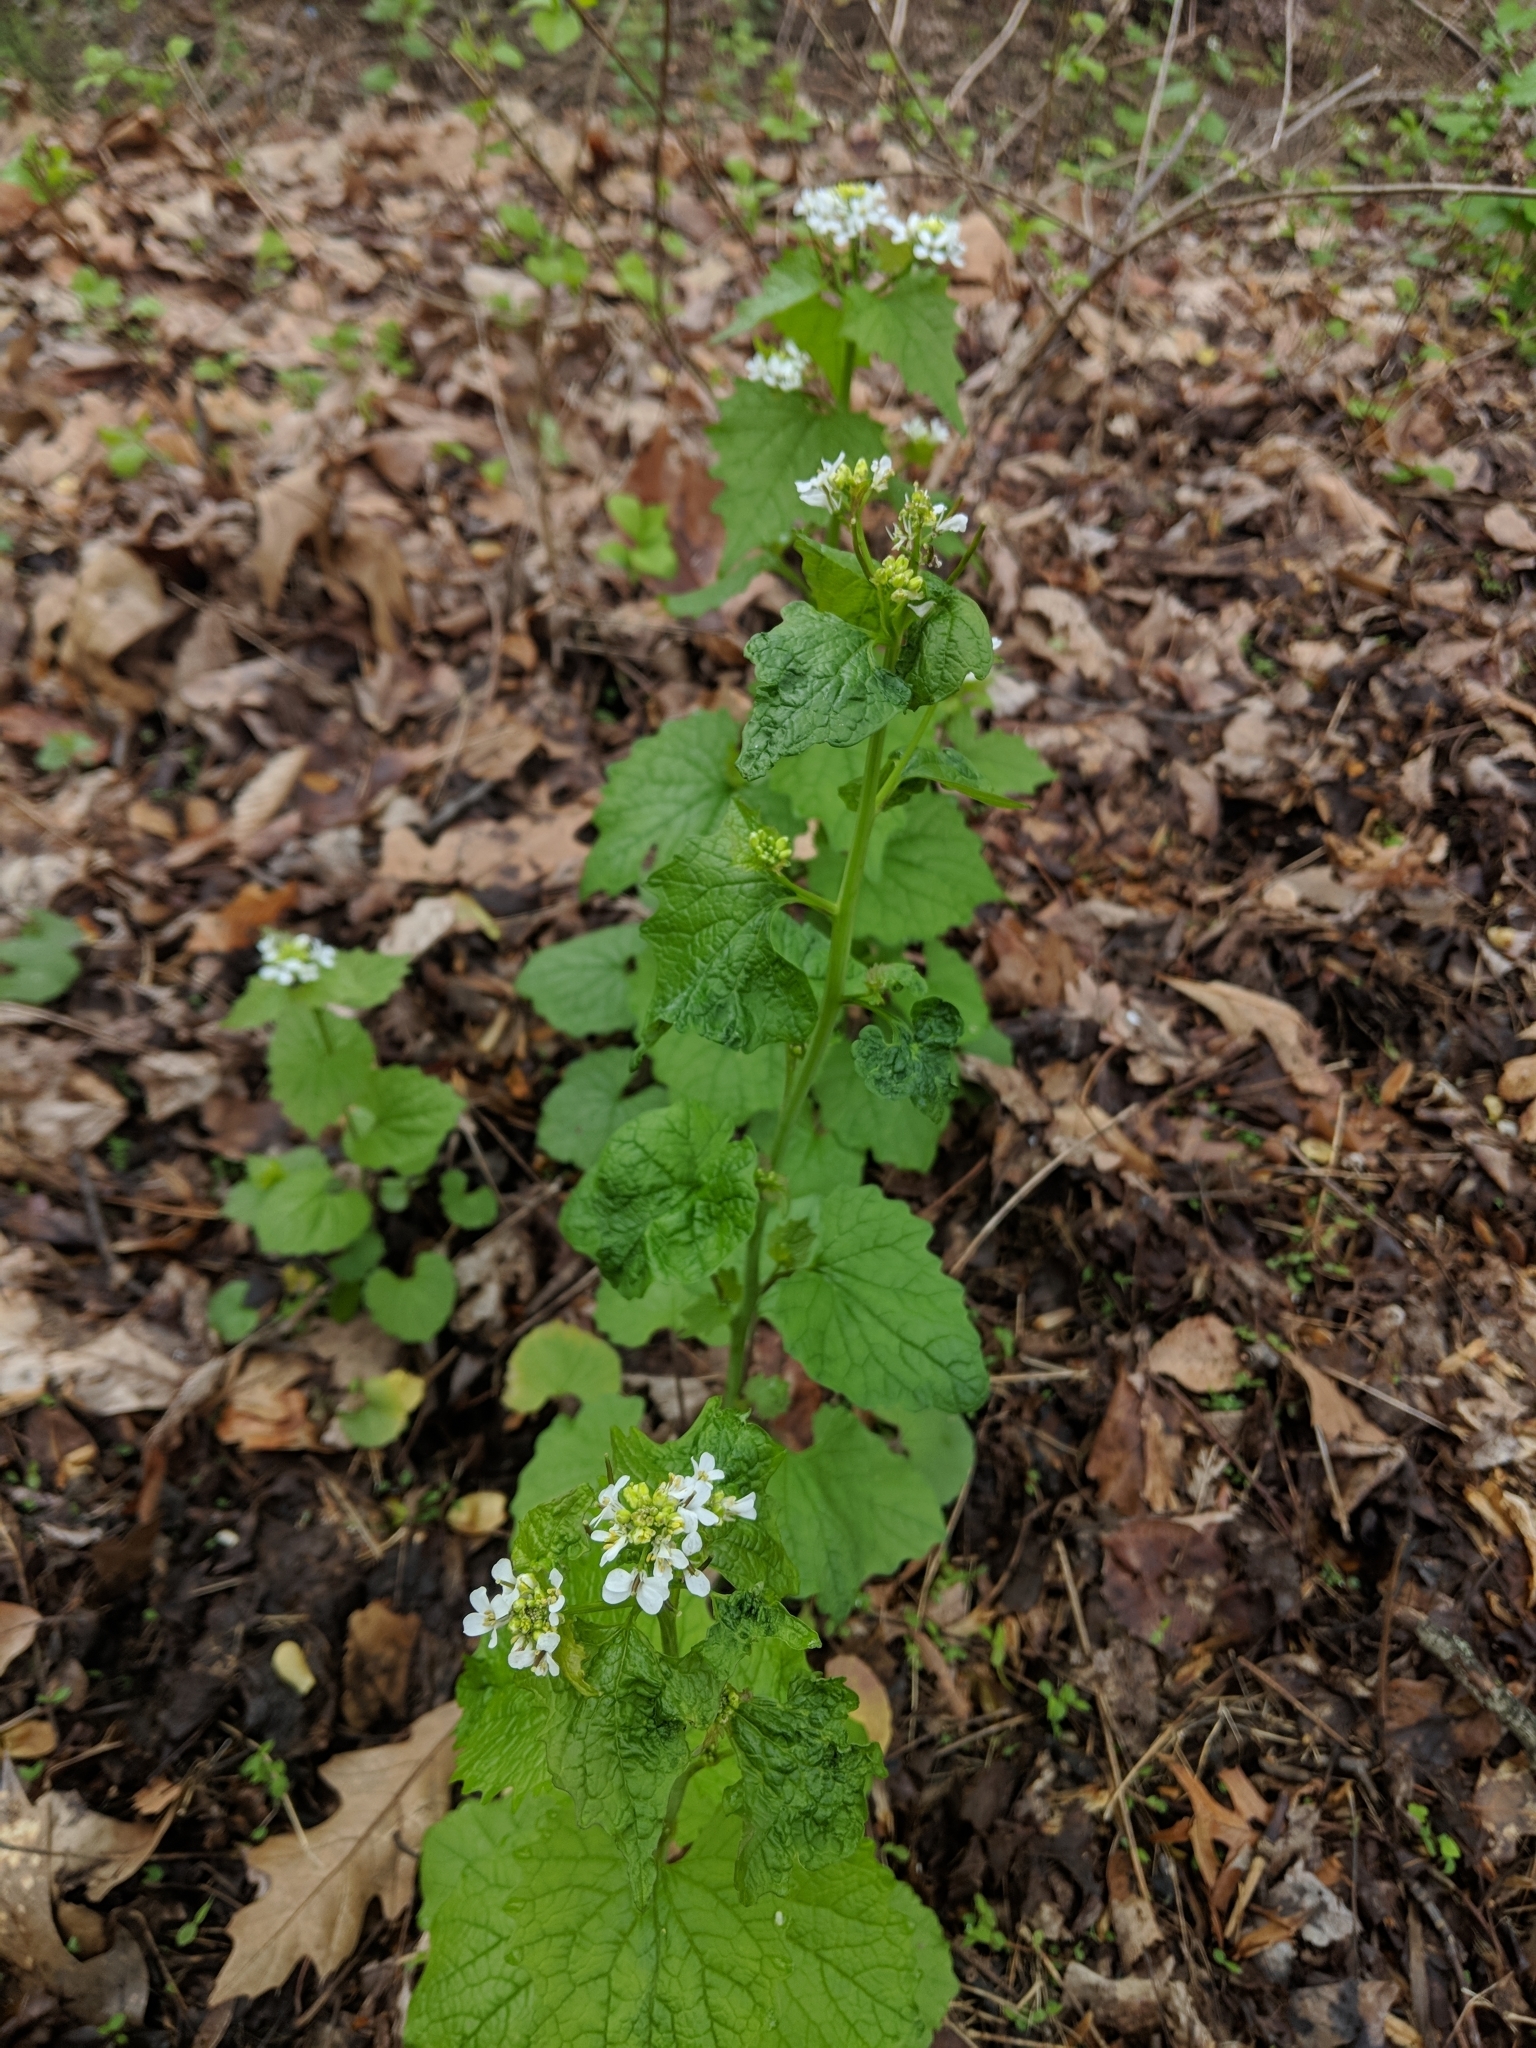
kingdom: Plantae
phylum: Tracheophyta
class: Magnoliopsida
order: Brassicales
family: Brassicaceae
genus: Alliaria
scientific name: Alliaria petiolata
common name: Garlic mustard
